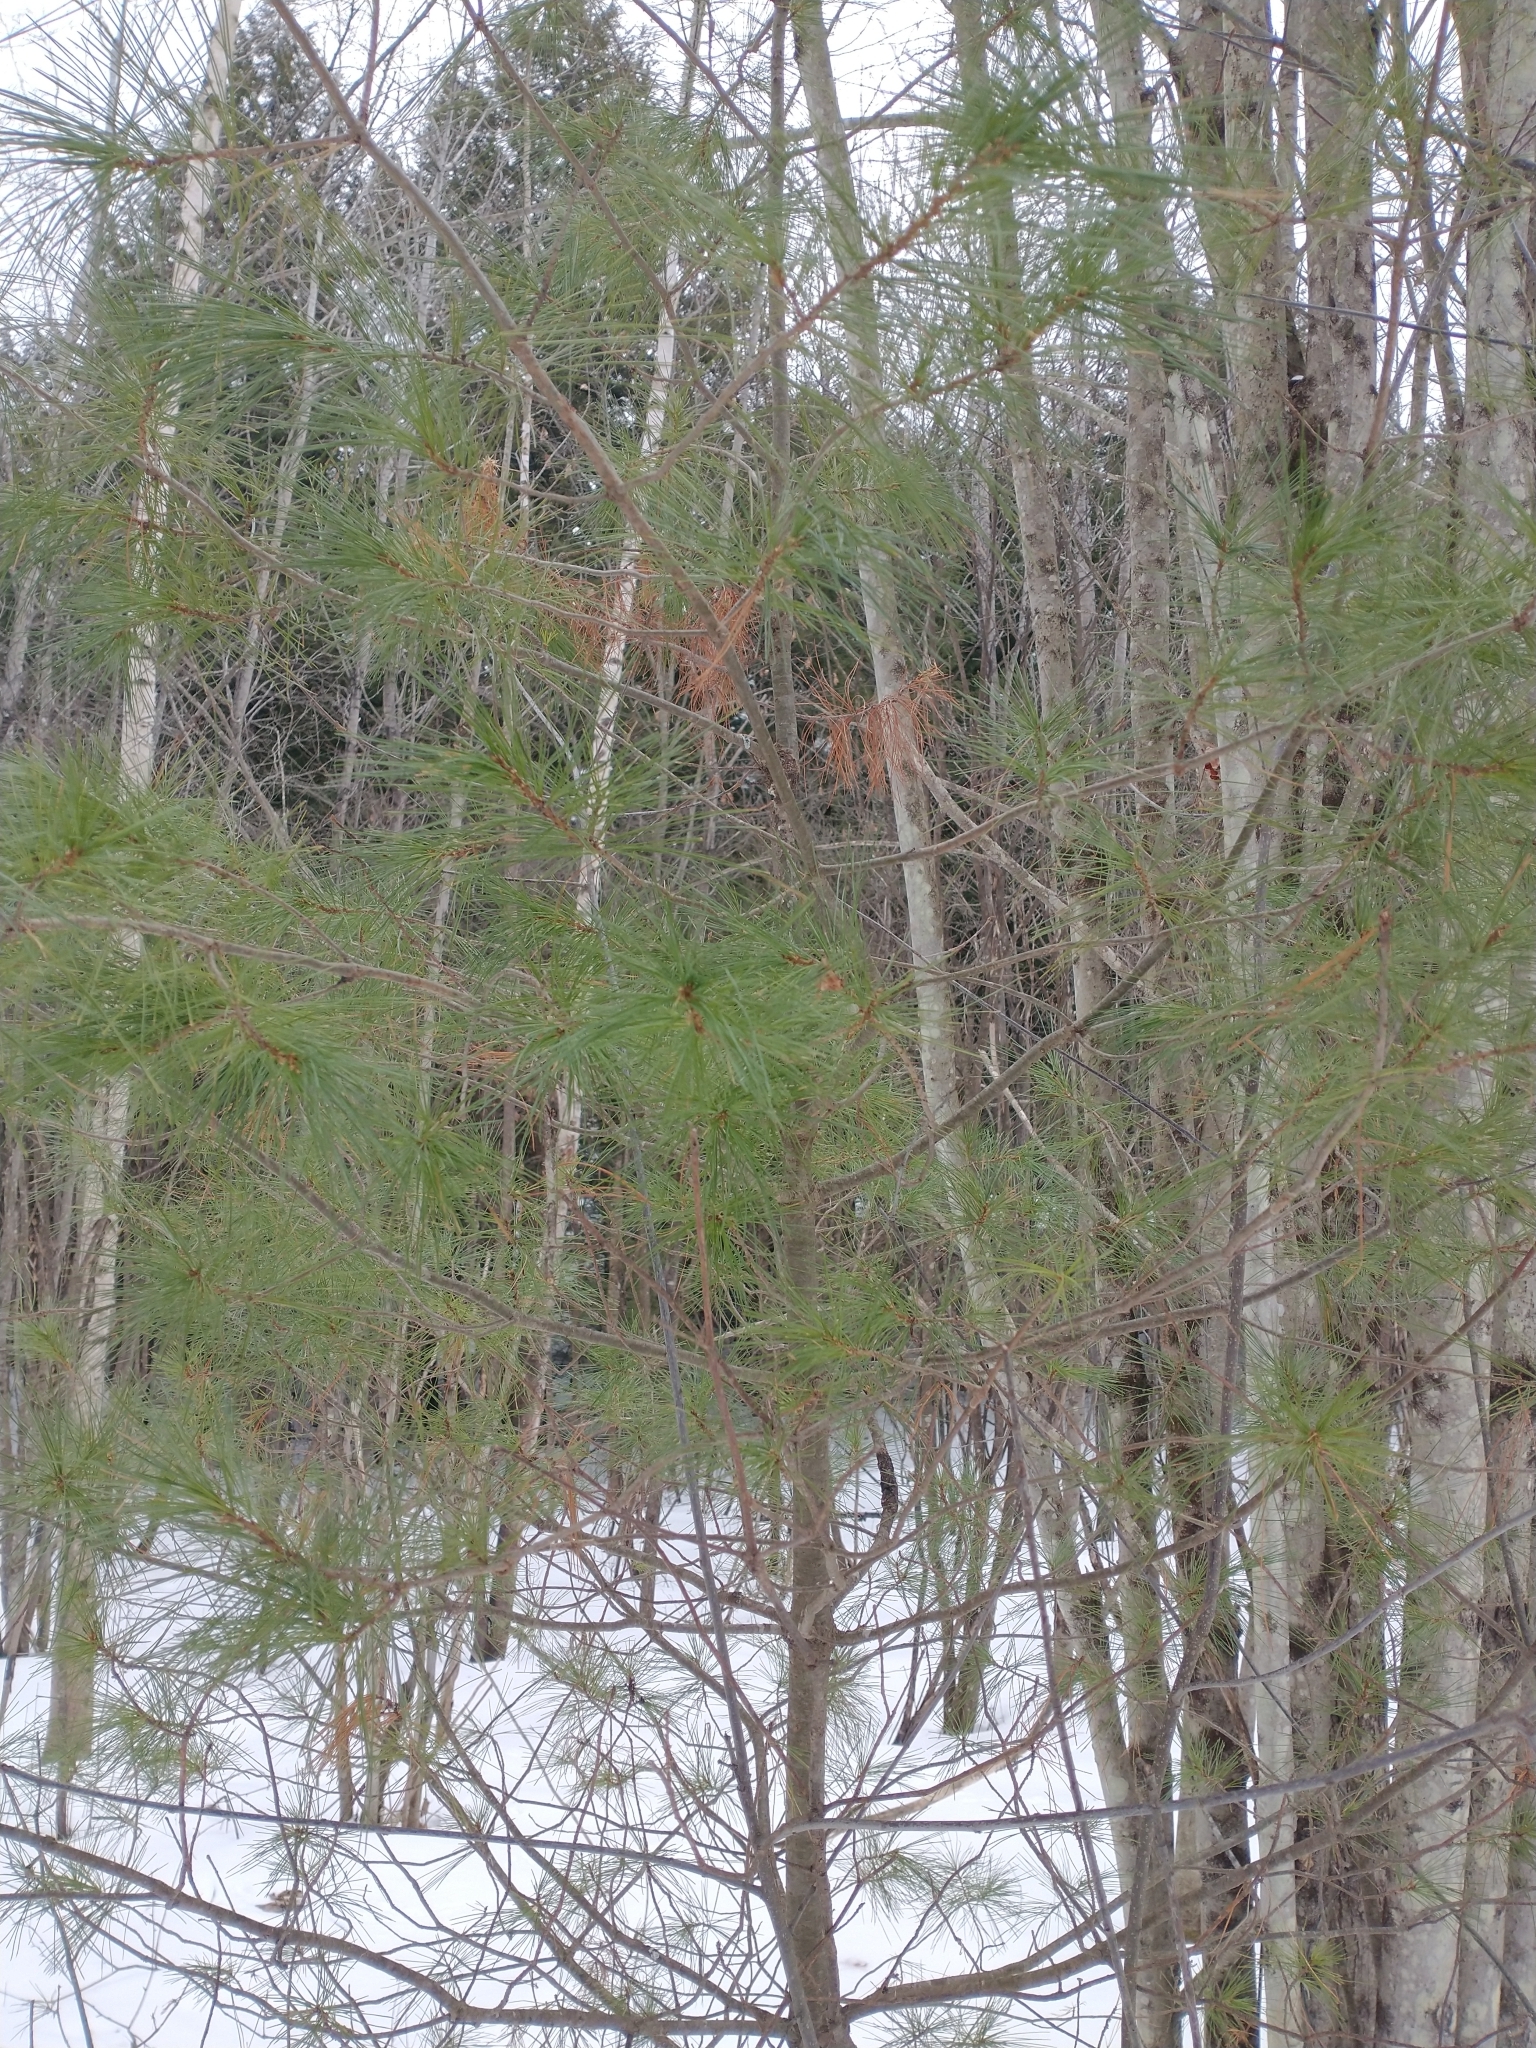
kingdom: Animalia
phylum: Arthropoda
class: Insecta
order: Lepidoptera
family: Tortricidae
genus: Argyrotaenia
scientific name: Argyrotaenia pinatubana
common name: Pine tube moth
